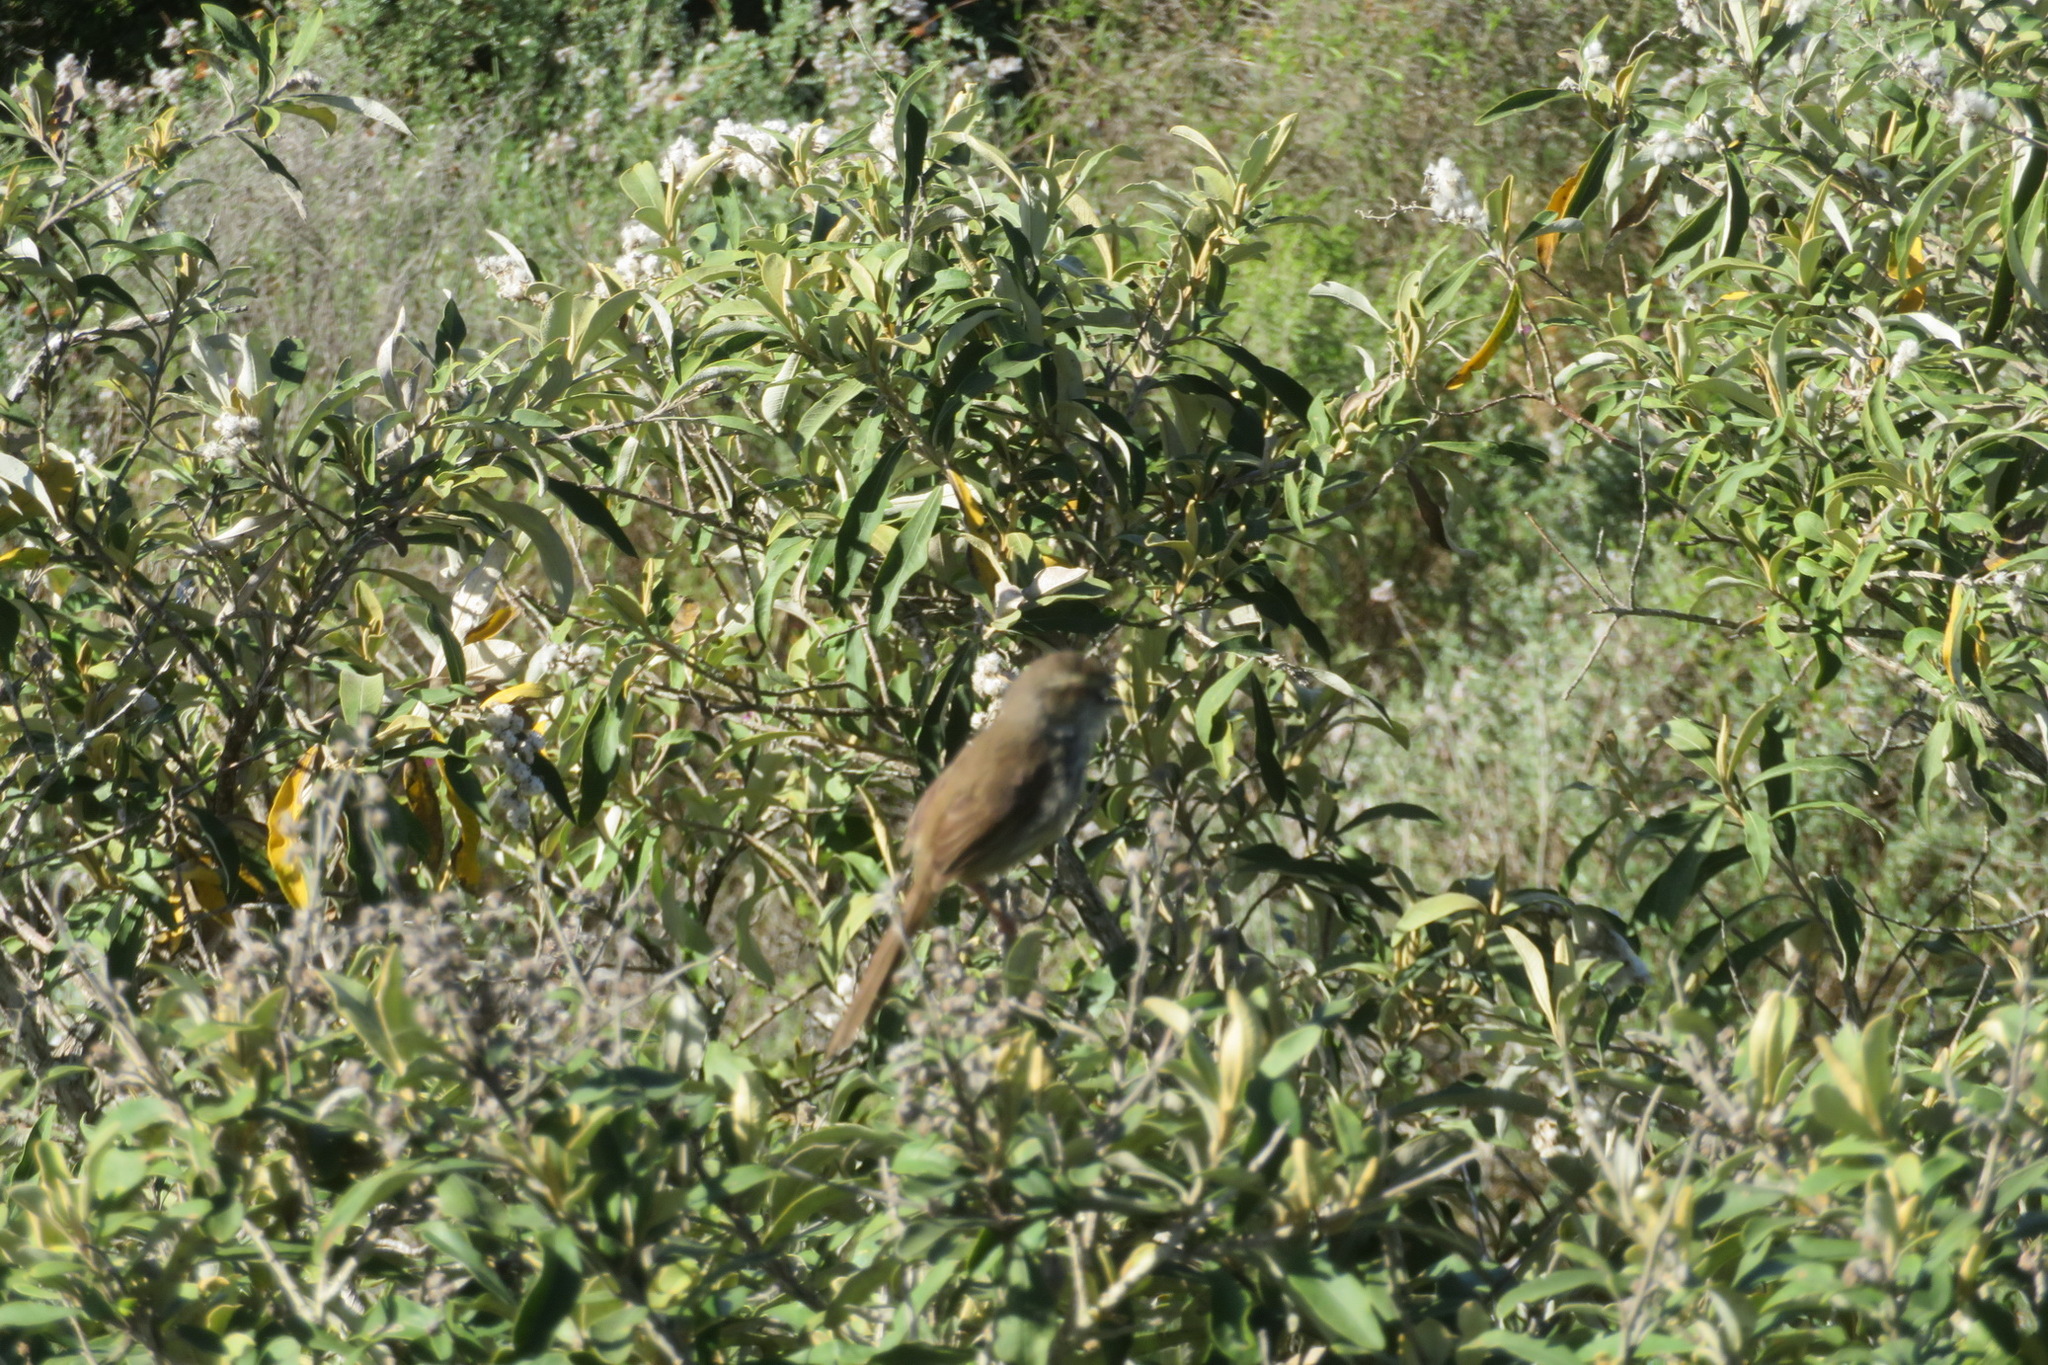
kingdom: Plantae
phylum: Tracheophyta
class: Magnoliopsida
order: Asterales
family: Asteraceae
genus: Tarchonanthus
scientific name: Tarchonanthus littoralis
